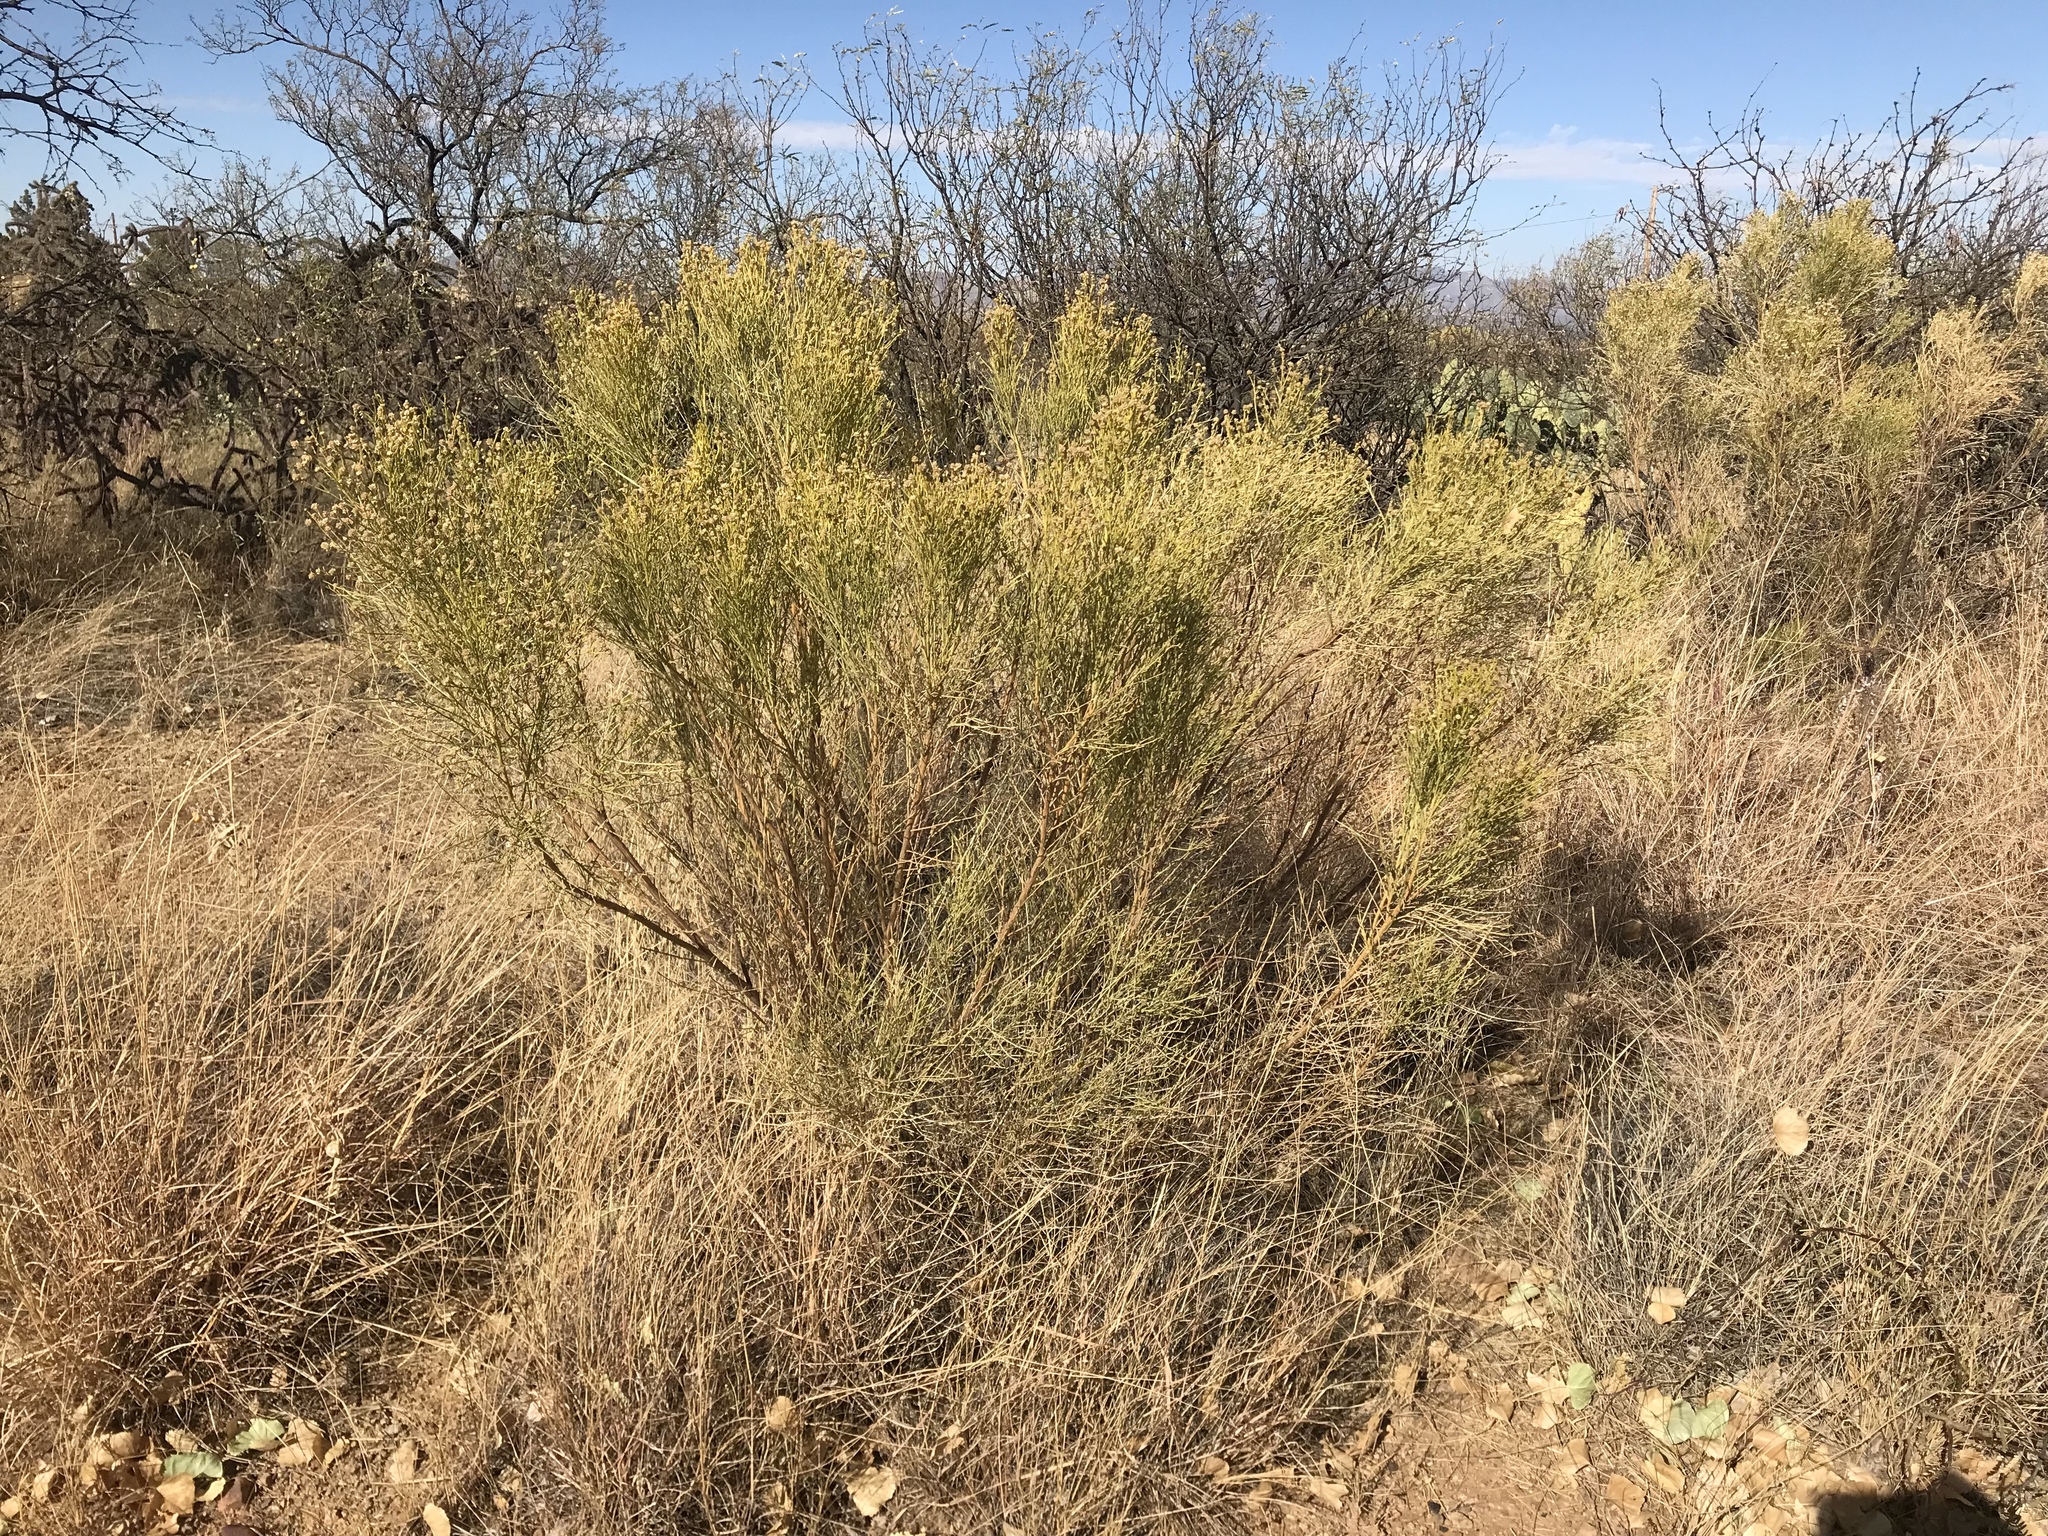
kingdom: Plantae
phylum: Tracheophyta
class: Magnoliopsida
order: Asterales
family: Asteraceae
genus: Baccharis
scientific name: Baccharis sarothroides
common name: Desert-broom
